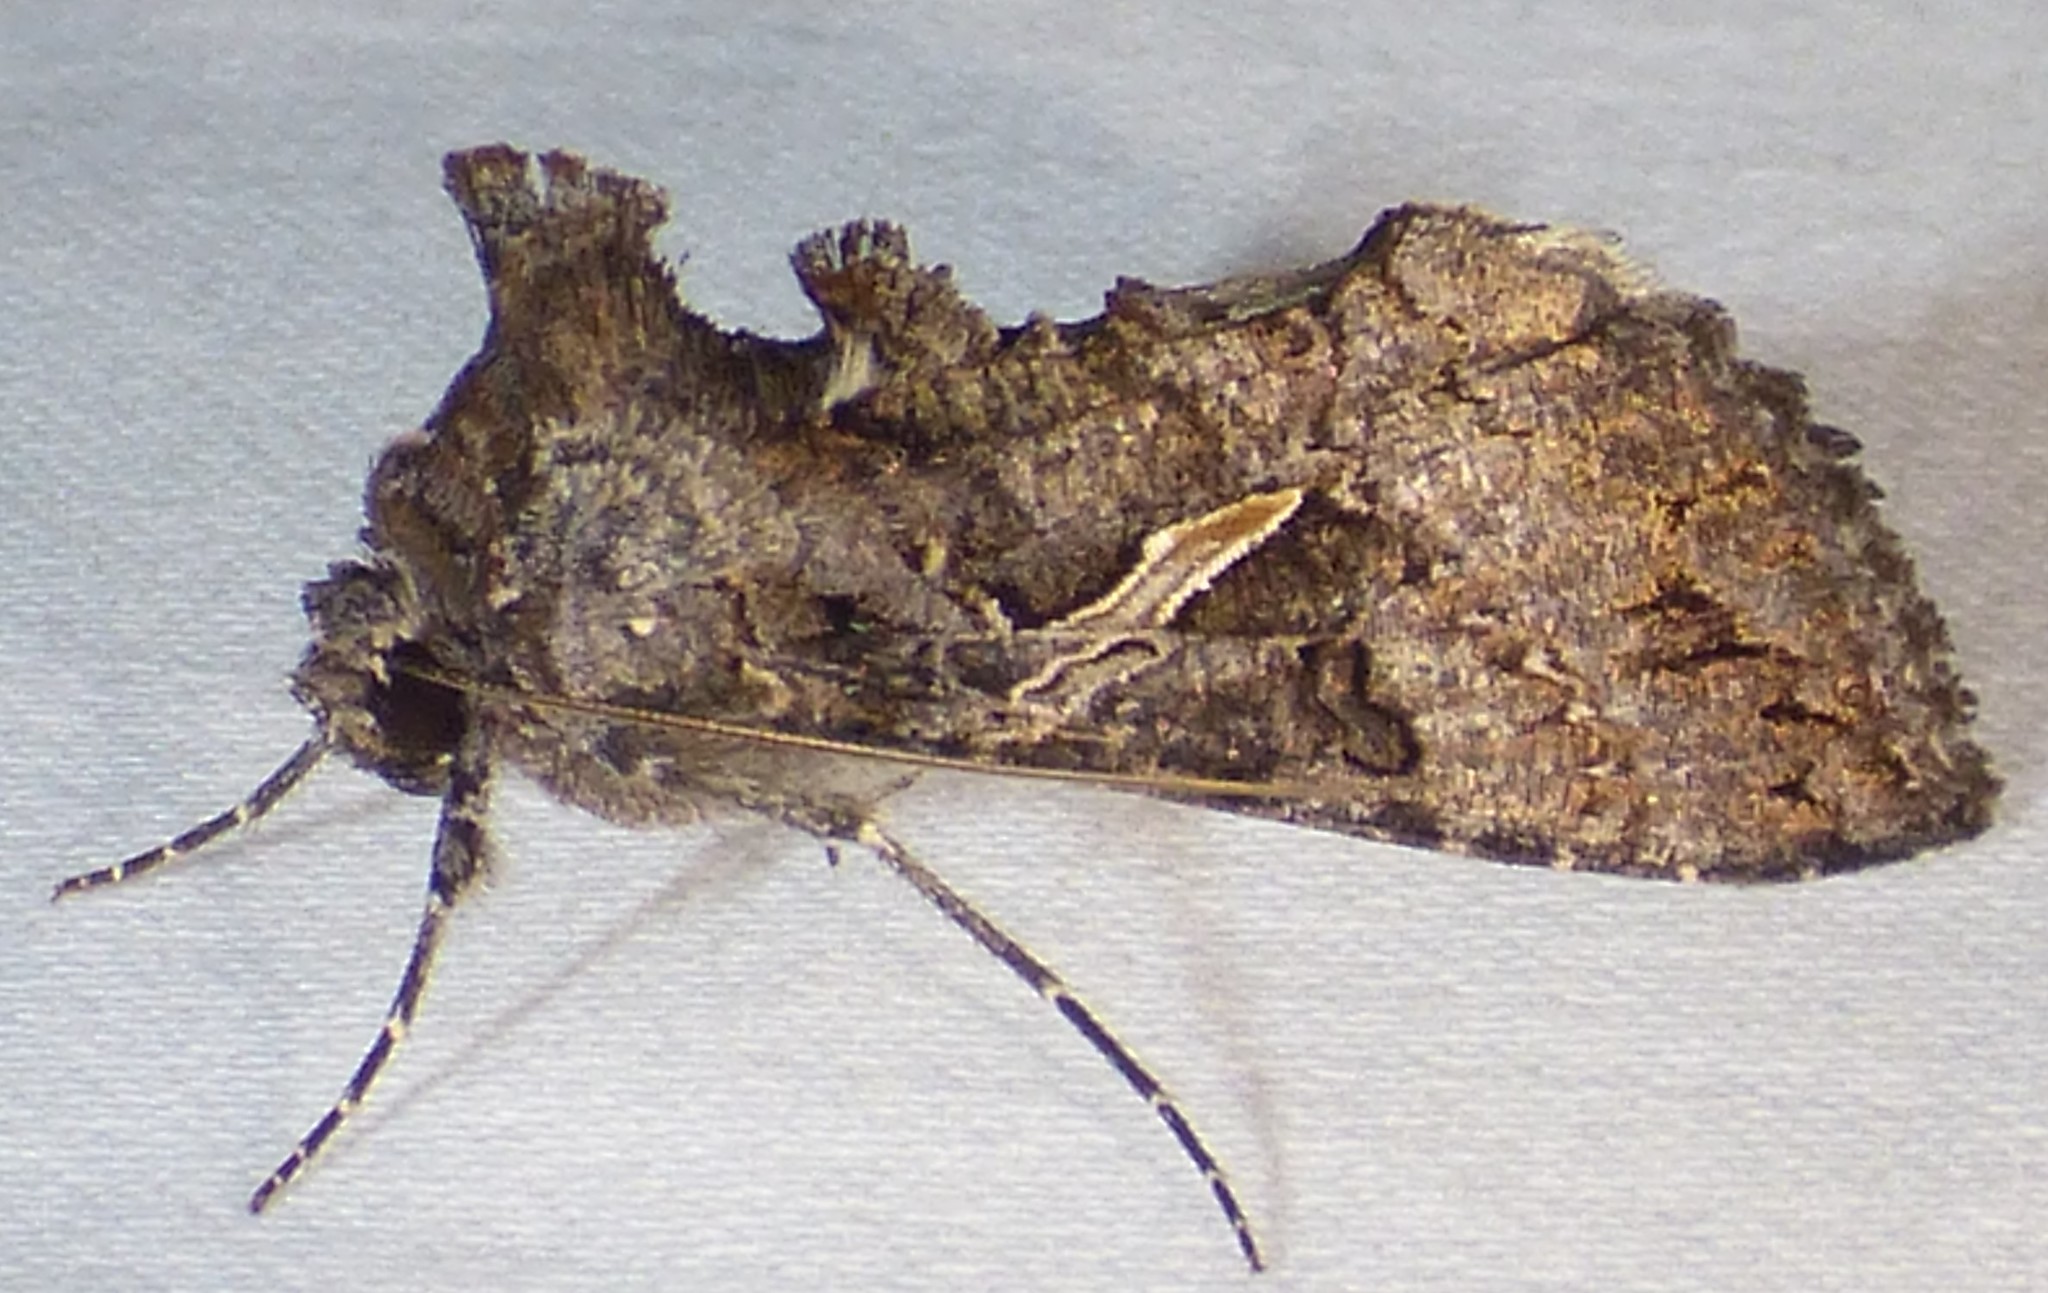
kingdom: Animalia
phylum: Arthropoda
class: Insecta
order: Lepidoptera
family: Noctuidae
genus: Ctenoplusia
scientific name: Ctenoplusia oxygramma
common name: Sharp-stigma looper moth
